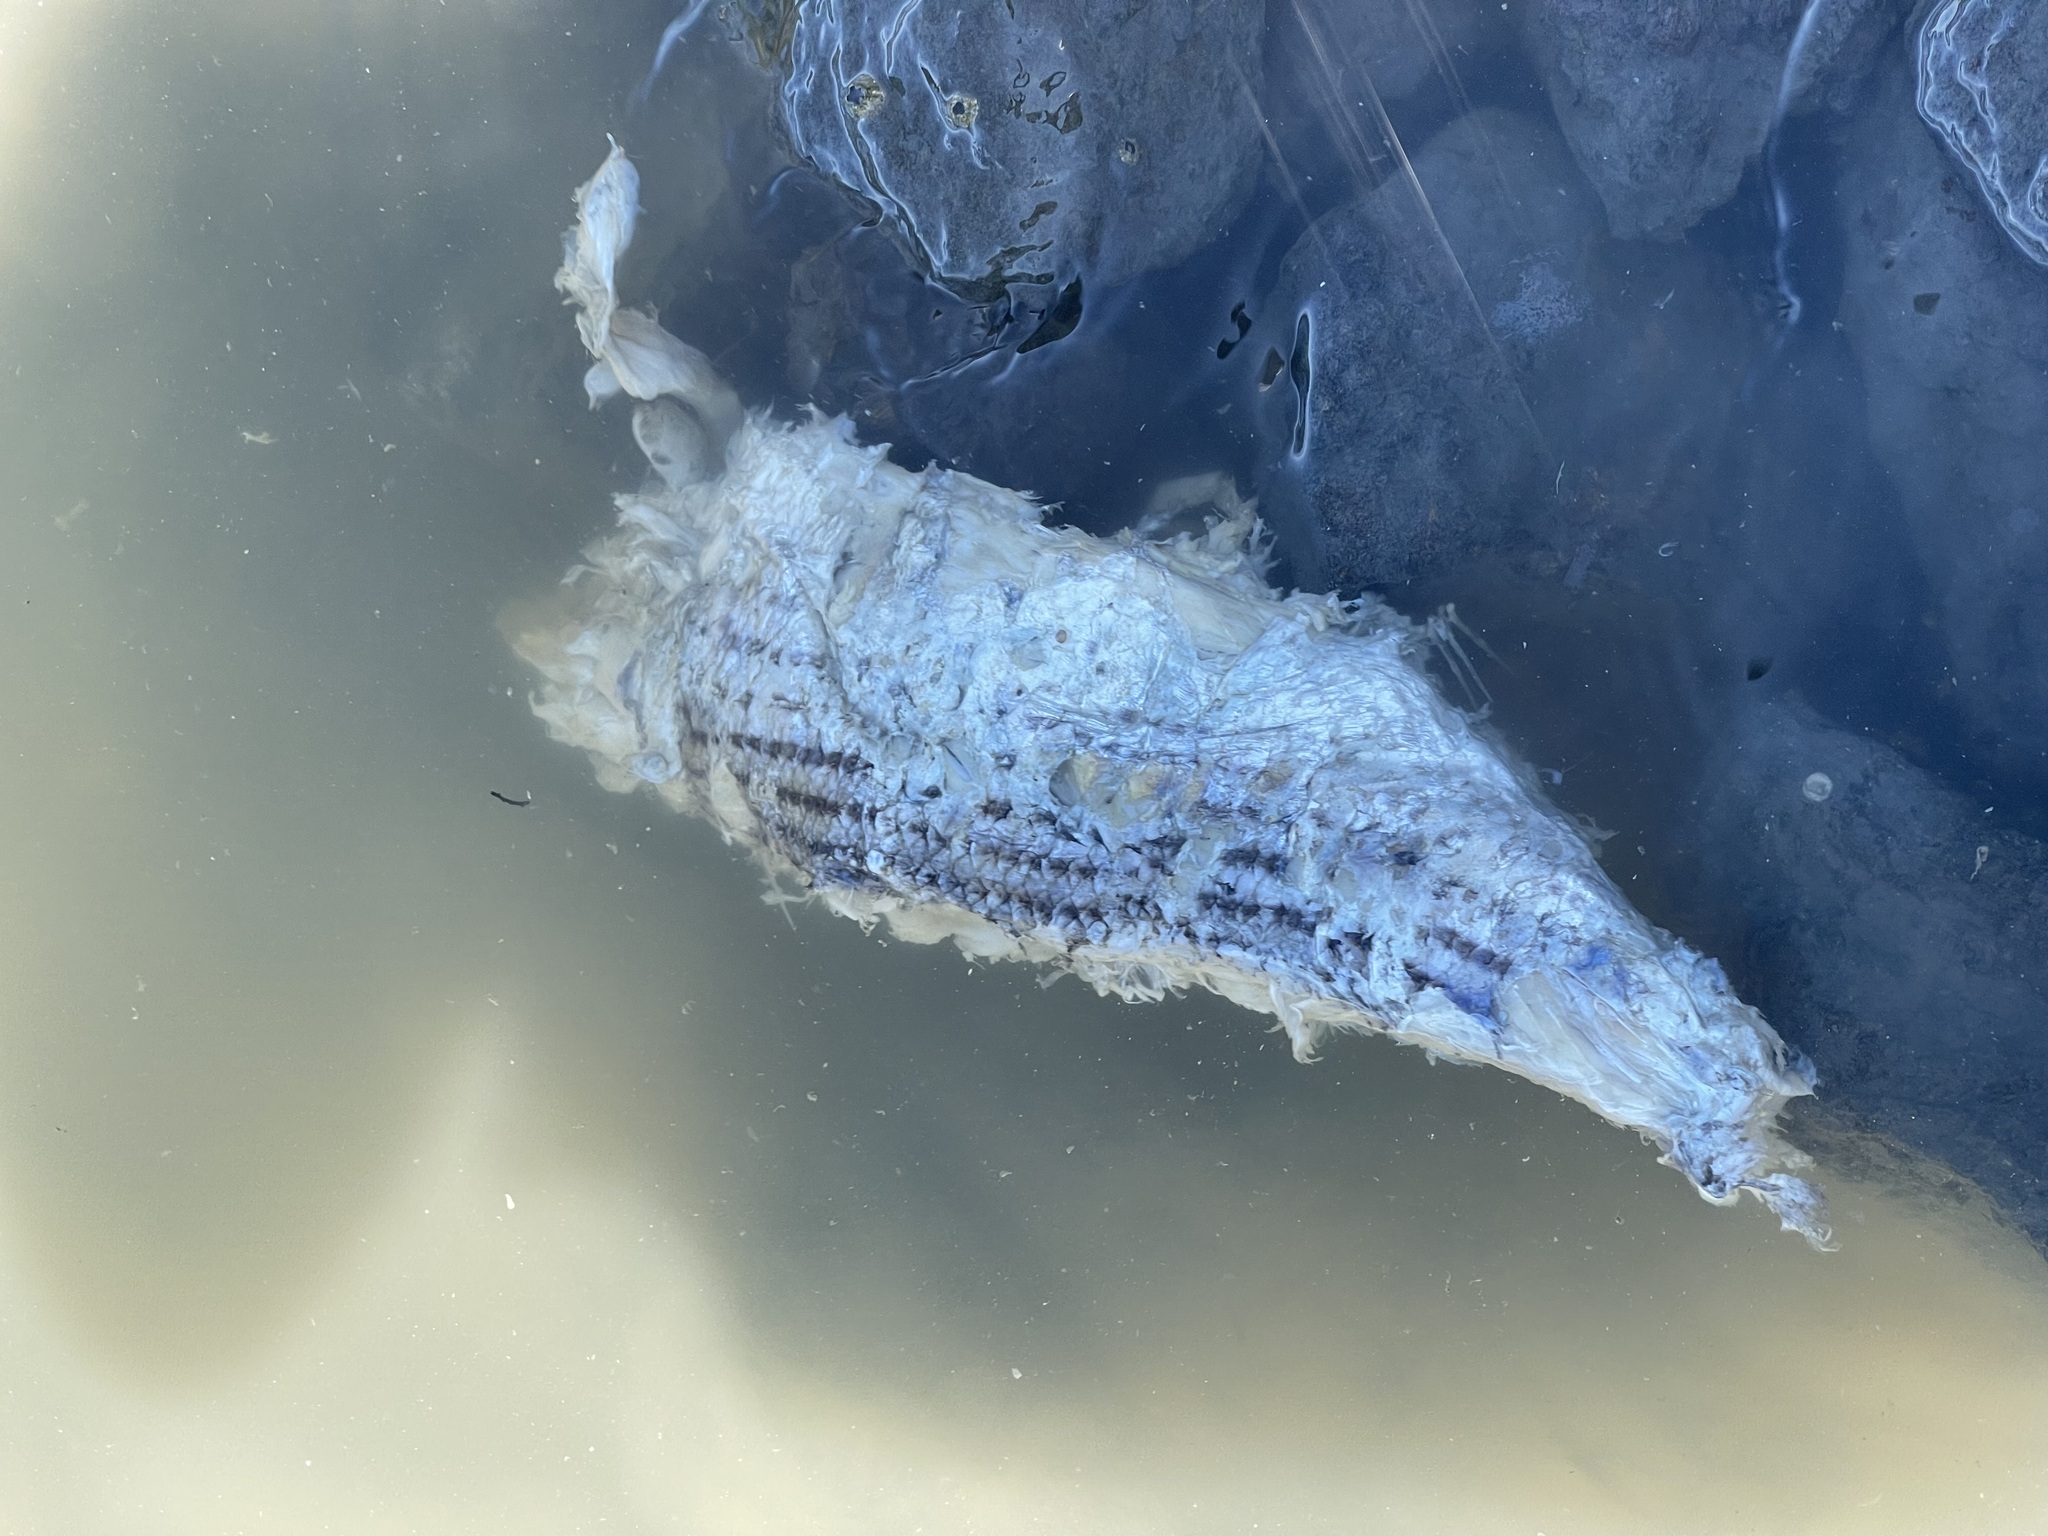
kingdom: Animalia
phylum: Chordata
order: Perciformes
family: Moronidae
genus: Morone
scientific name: Morone saxatilis
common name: Striped bass
